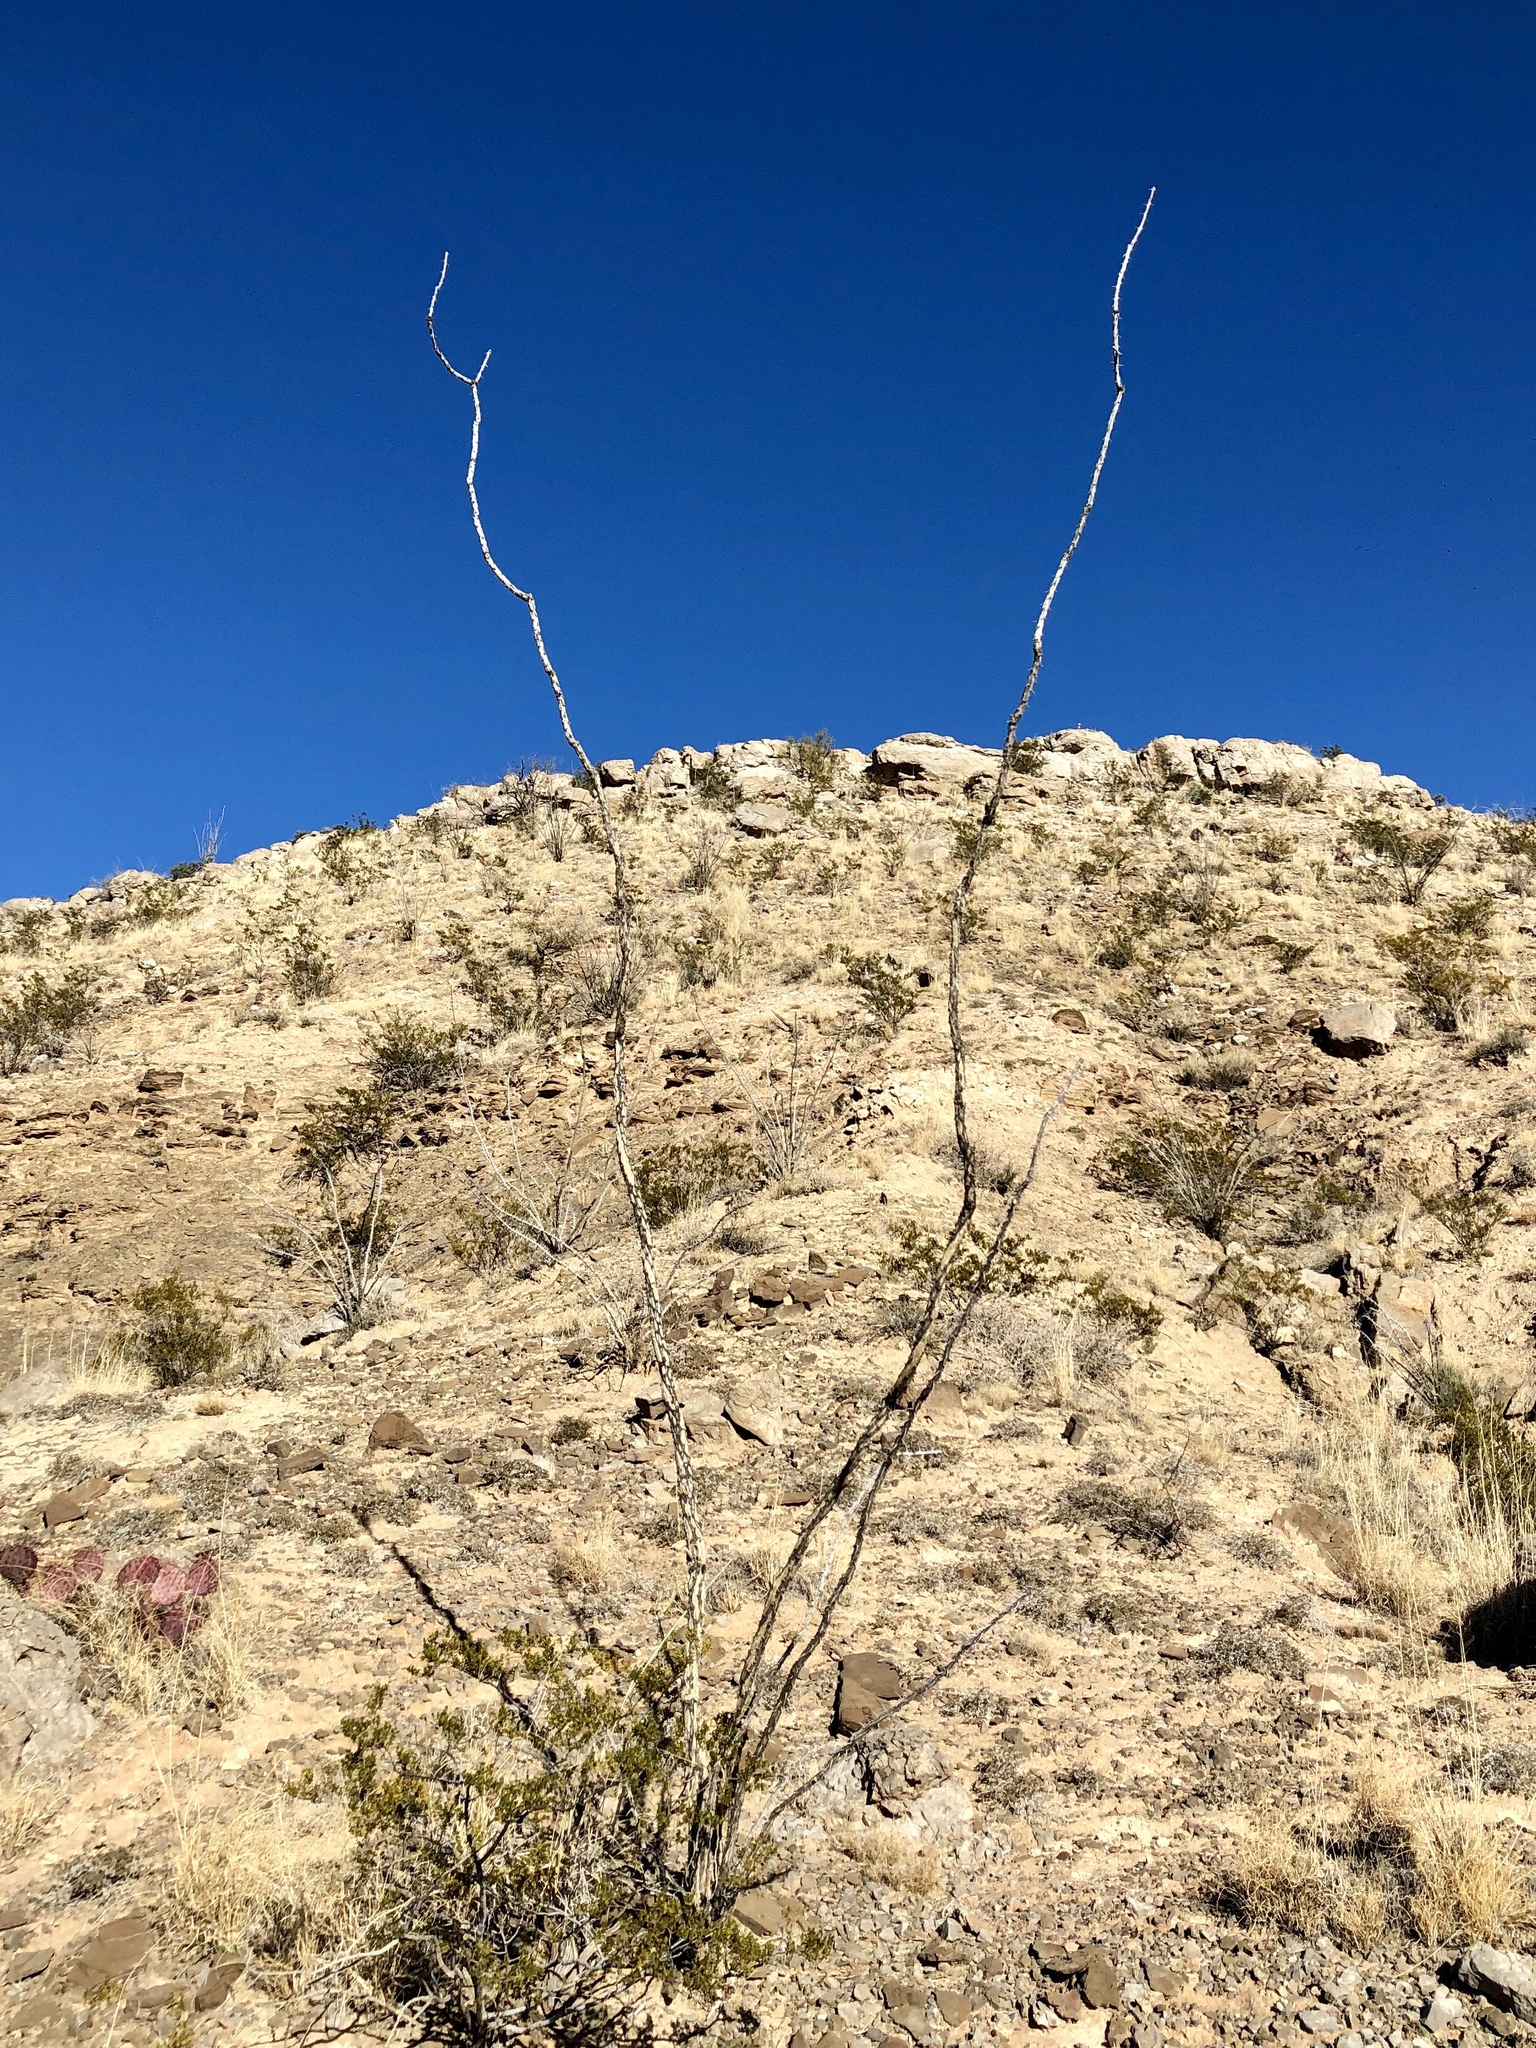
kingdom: Plantae
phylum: Tracheophyta
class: Magnoliopsida
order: Ericales
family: Fouquieriaceae
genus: Fouquieria
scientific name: Fouquieria splendens
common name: Vine-cactus
